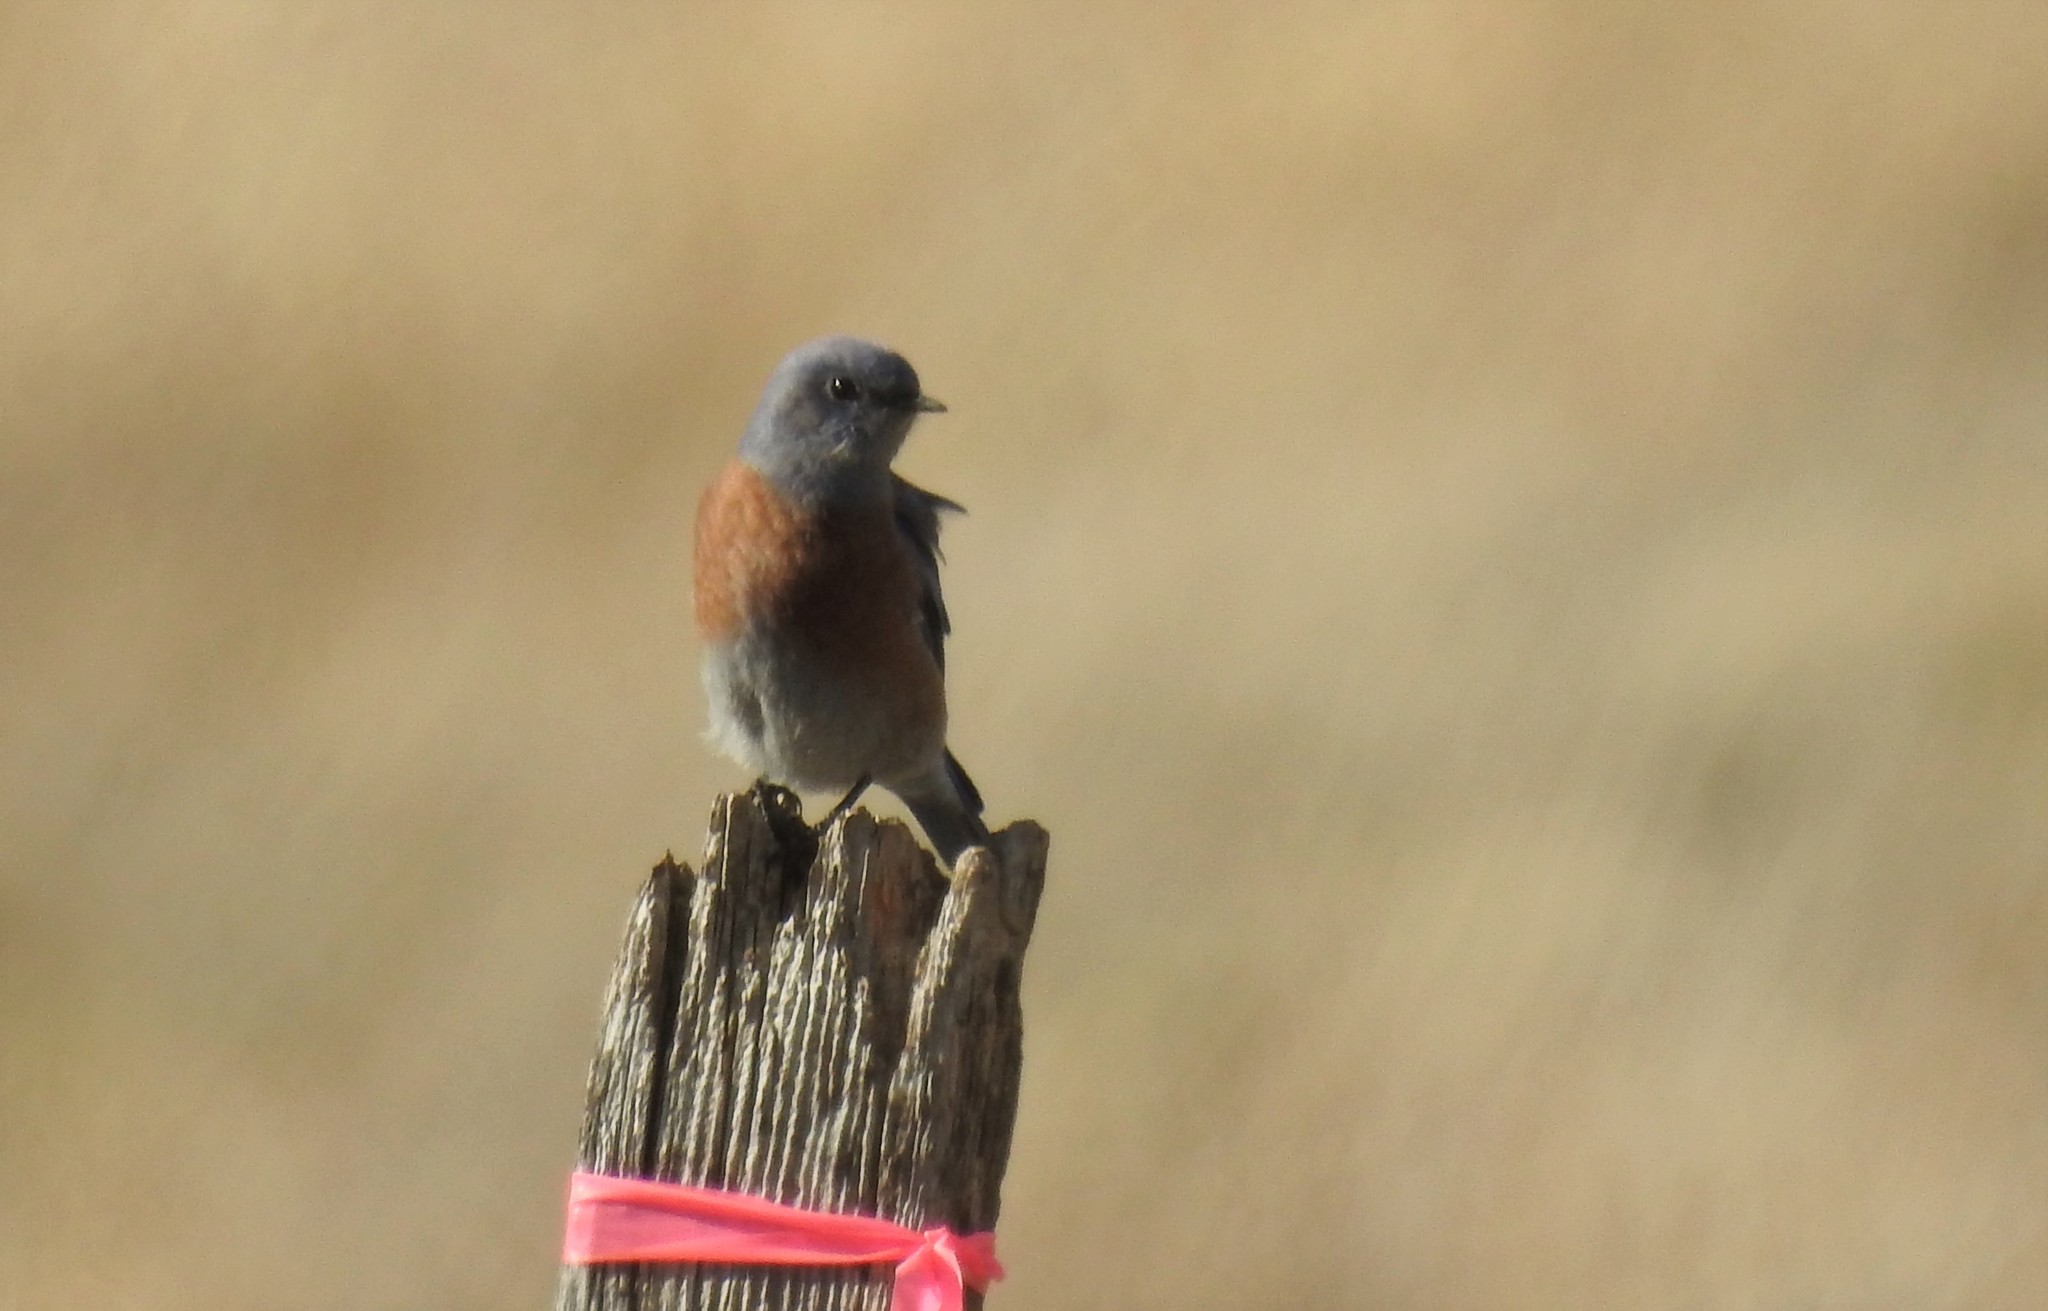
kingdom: Animalia
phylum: Chordata
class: Aves
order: Passeriformes
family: Turdidae
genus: Sialia
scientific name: Sialia mexicana
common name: Western bluebird
